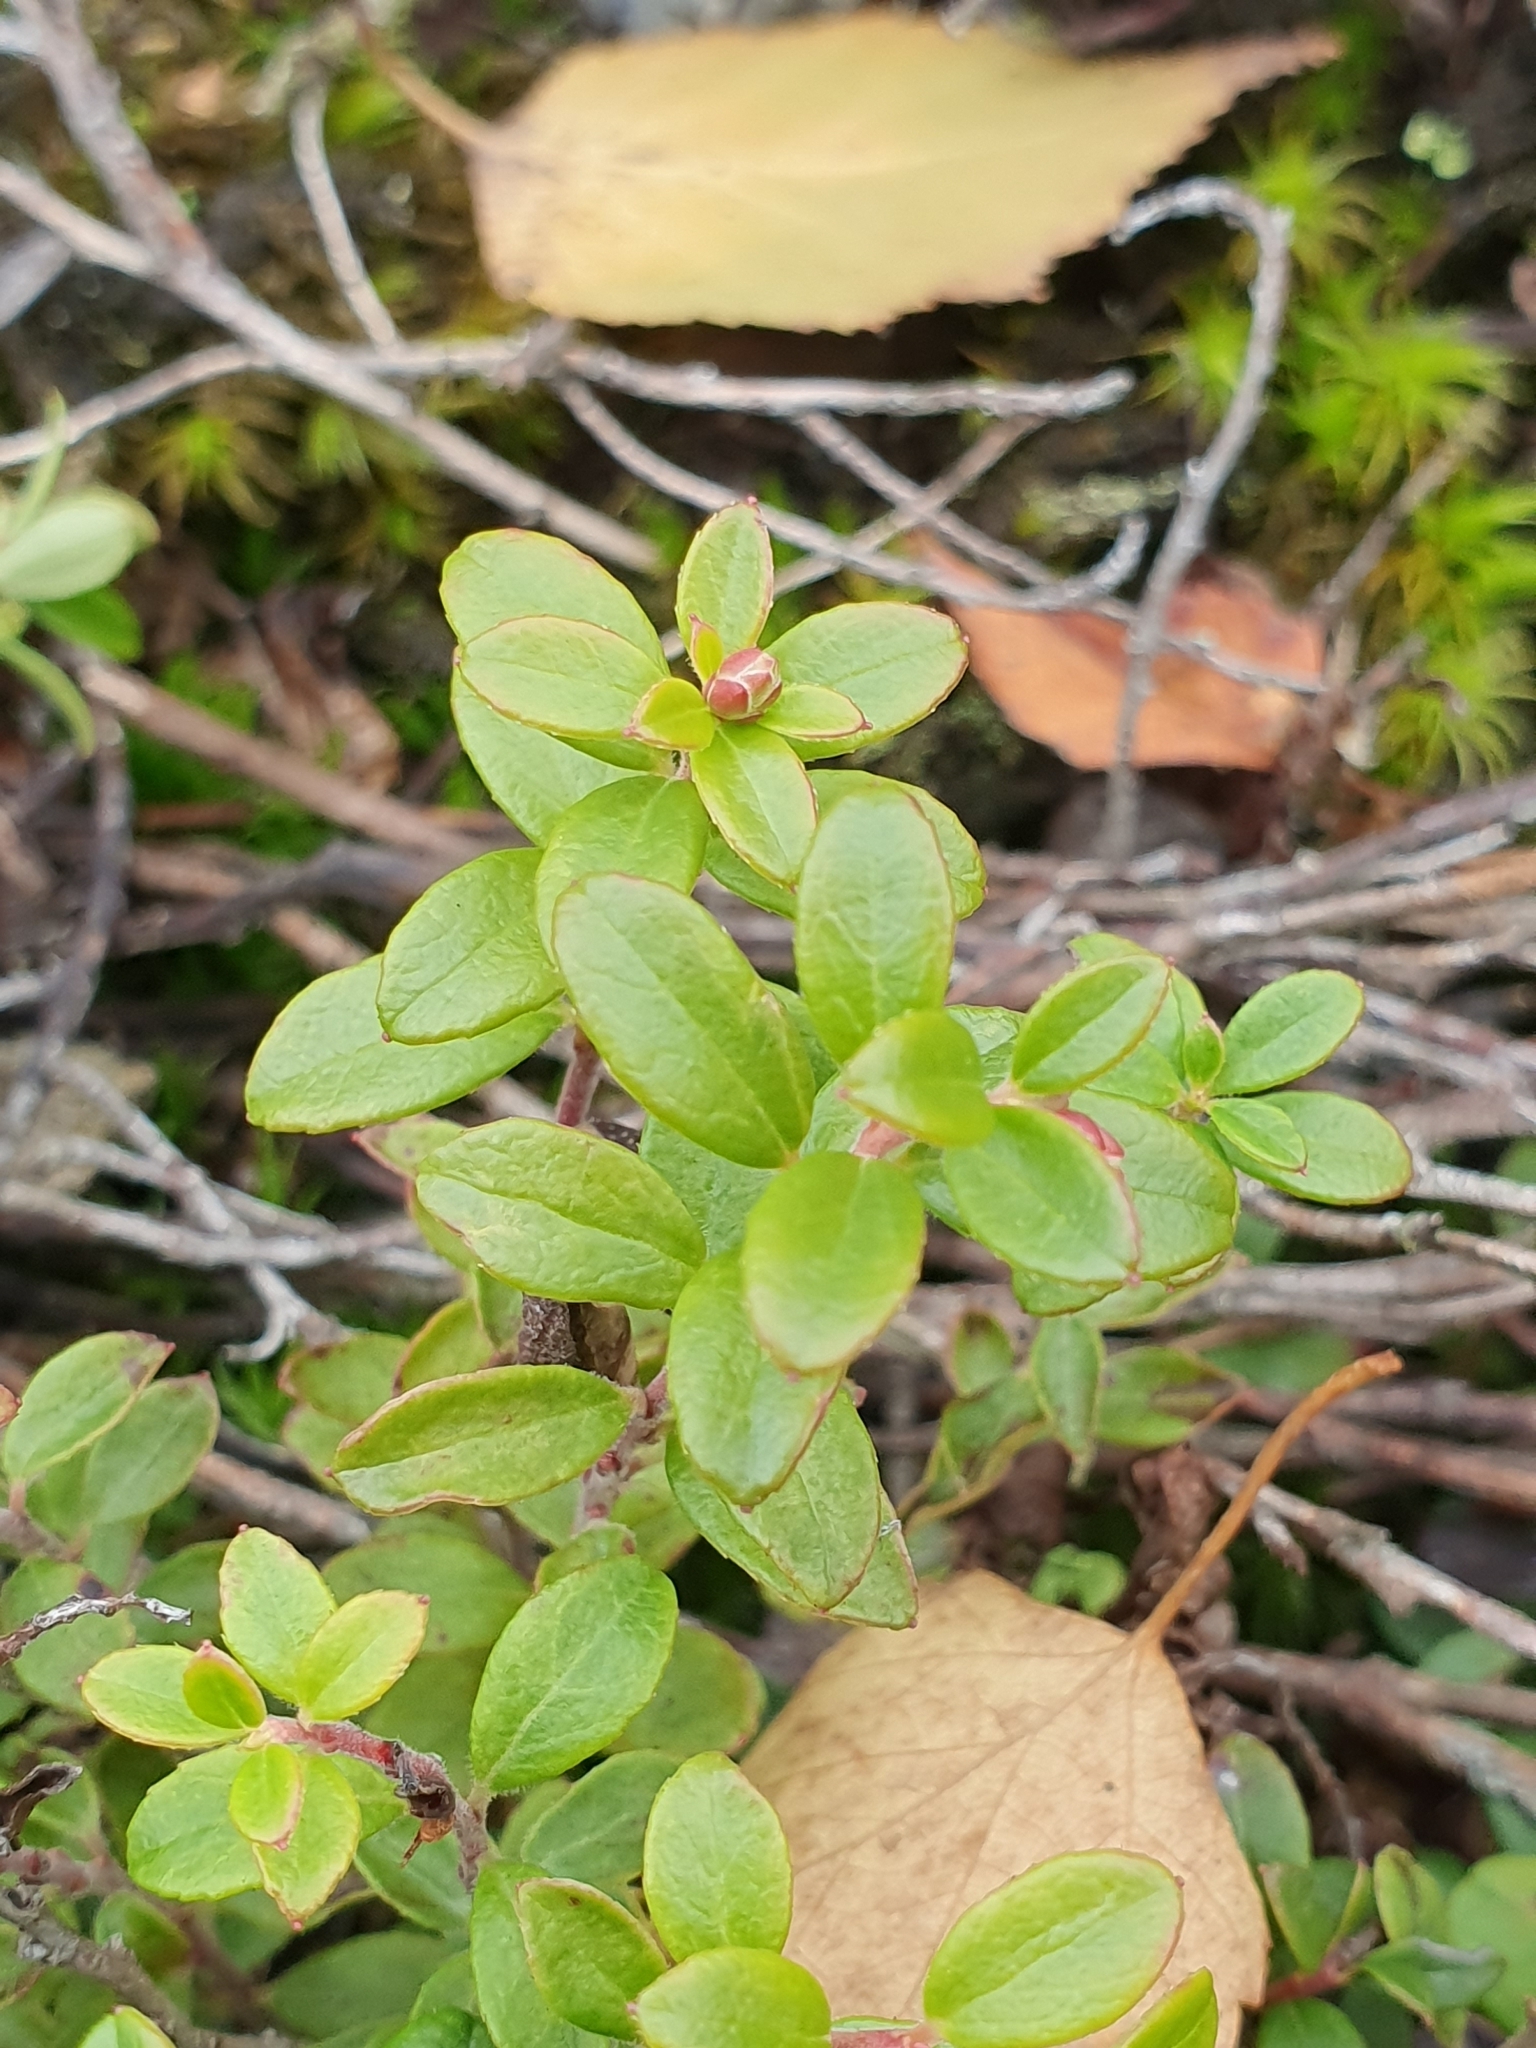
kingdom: Plantae
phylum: Tracheophyta
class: Magnoliopsida
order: Ericales
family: Ericaceae
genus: Vaccinium
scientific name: Vaccinium vitis-idaea
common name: Cowberry
